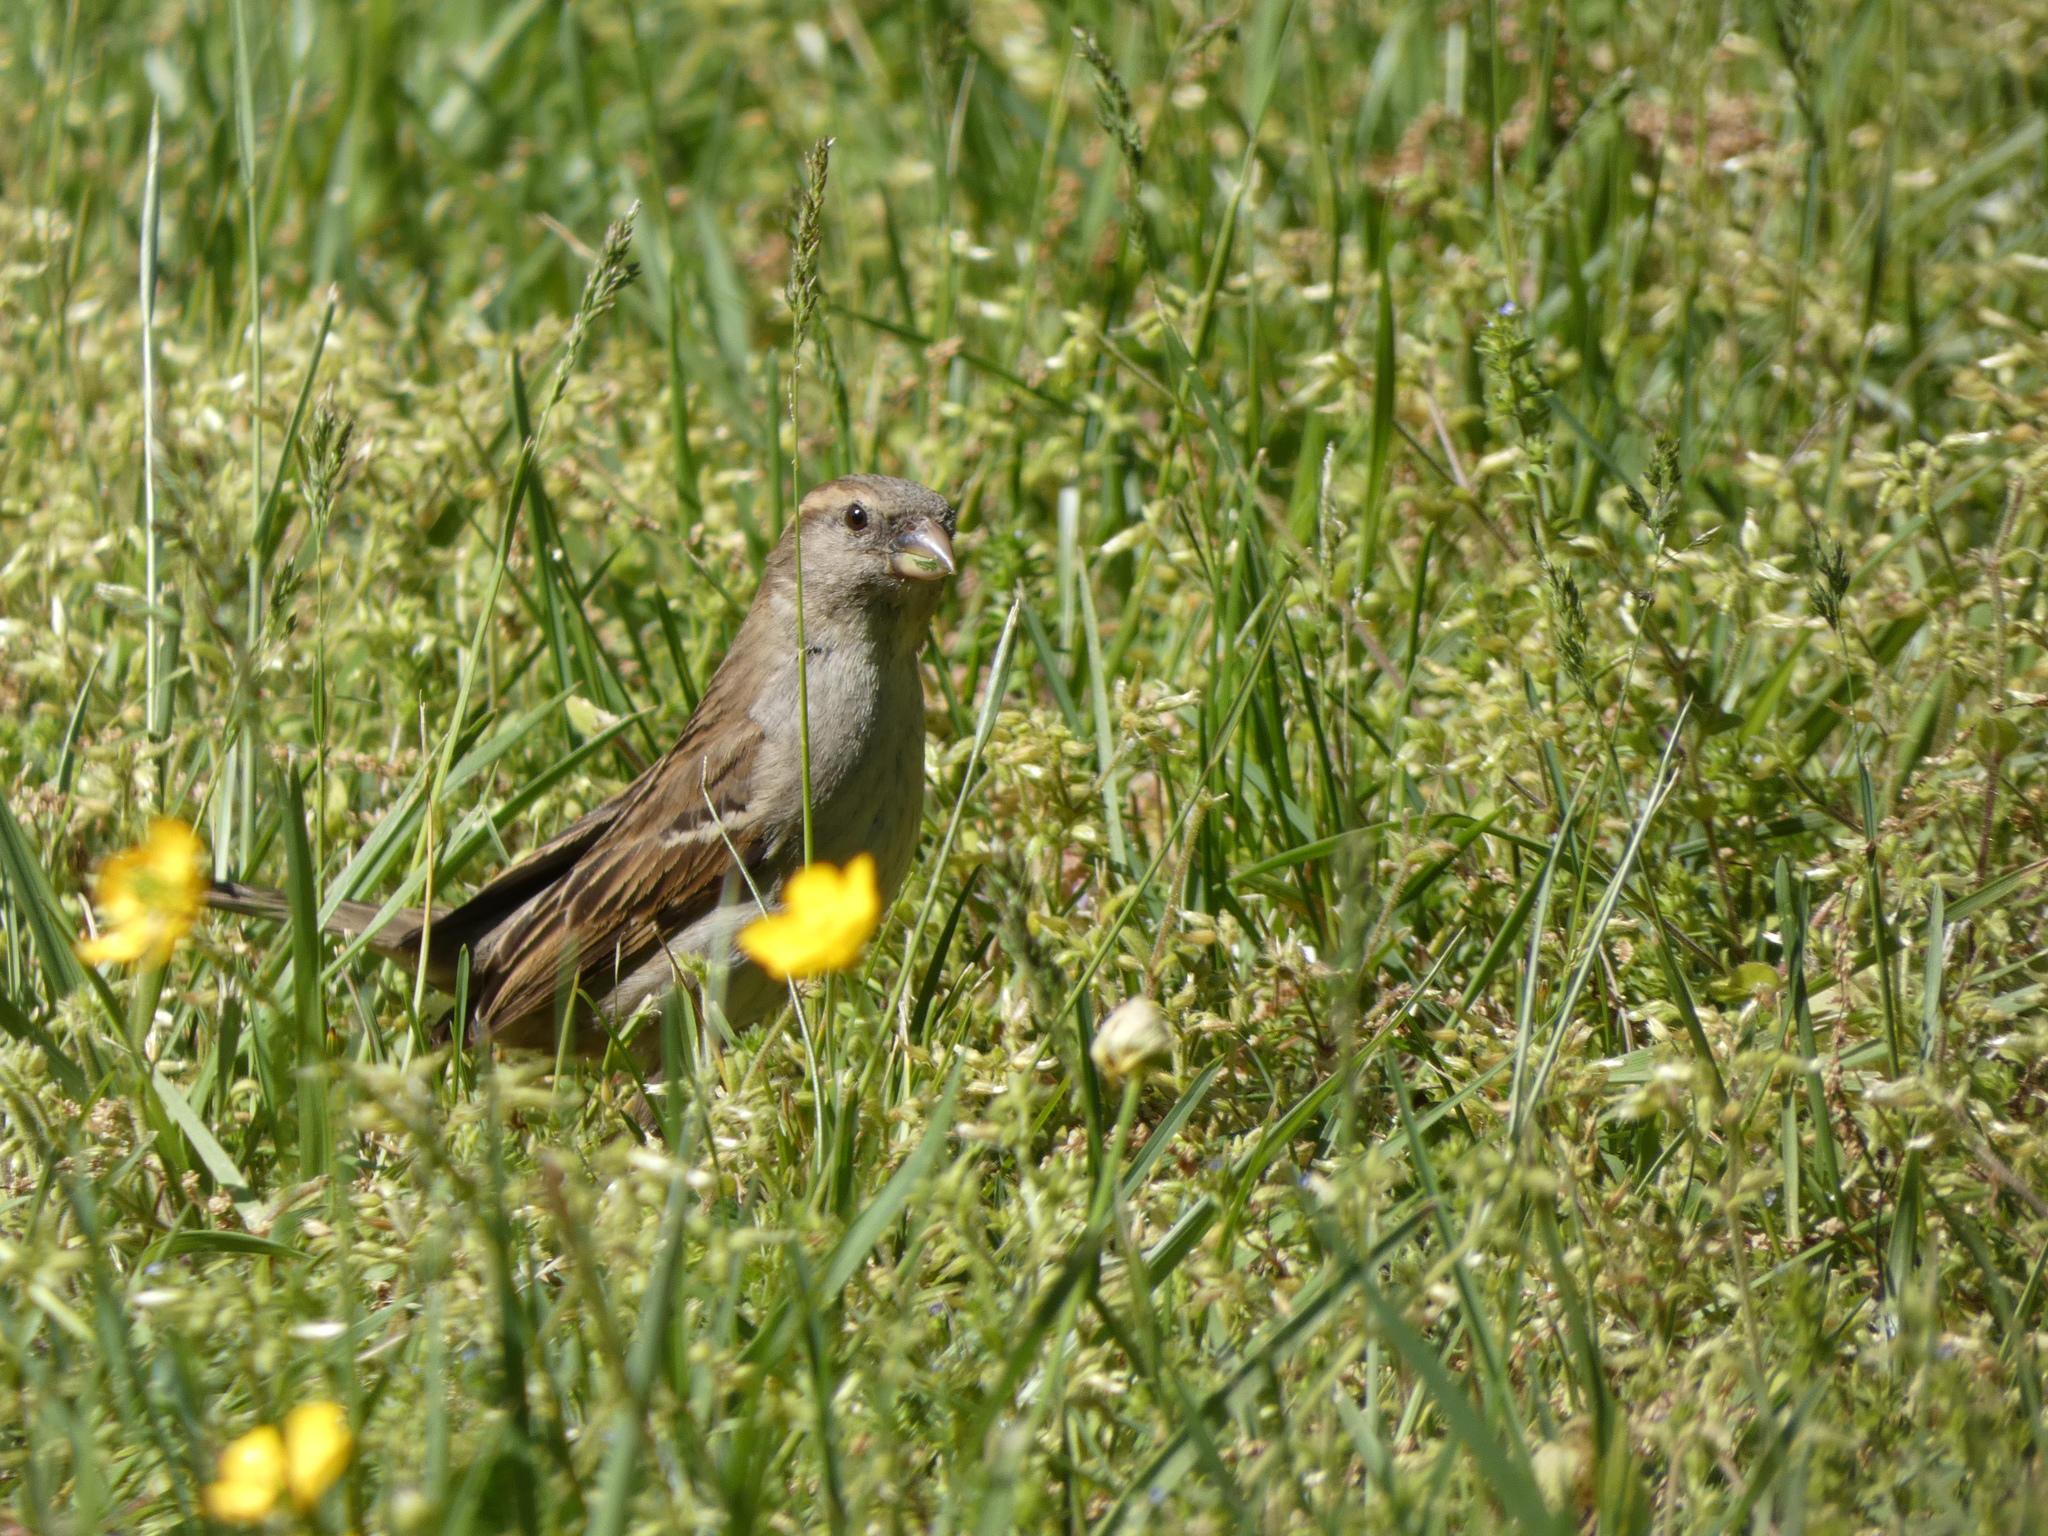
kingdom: Animalia
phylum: Chordata
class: Aves
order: Passeriformes
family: Passeridae
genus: Passer
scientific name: Passer domesticus
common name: House sparrow
